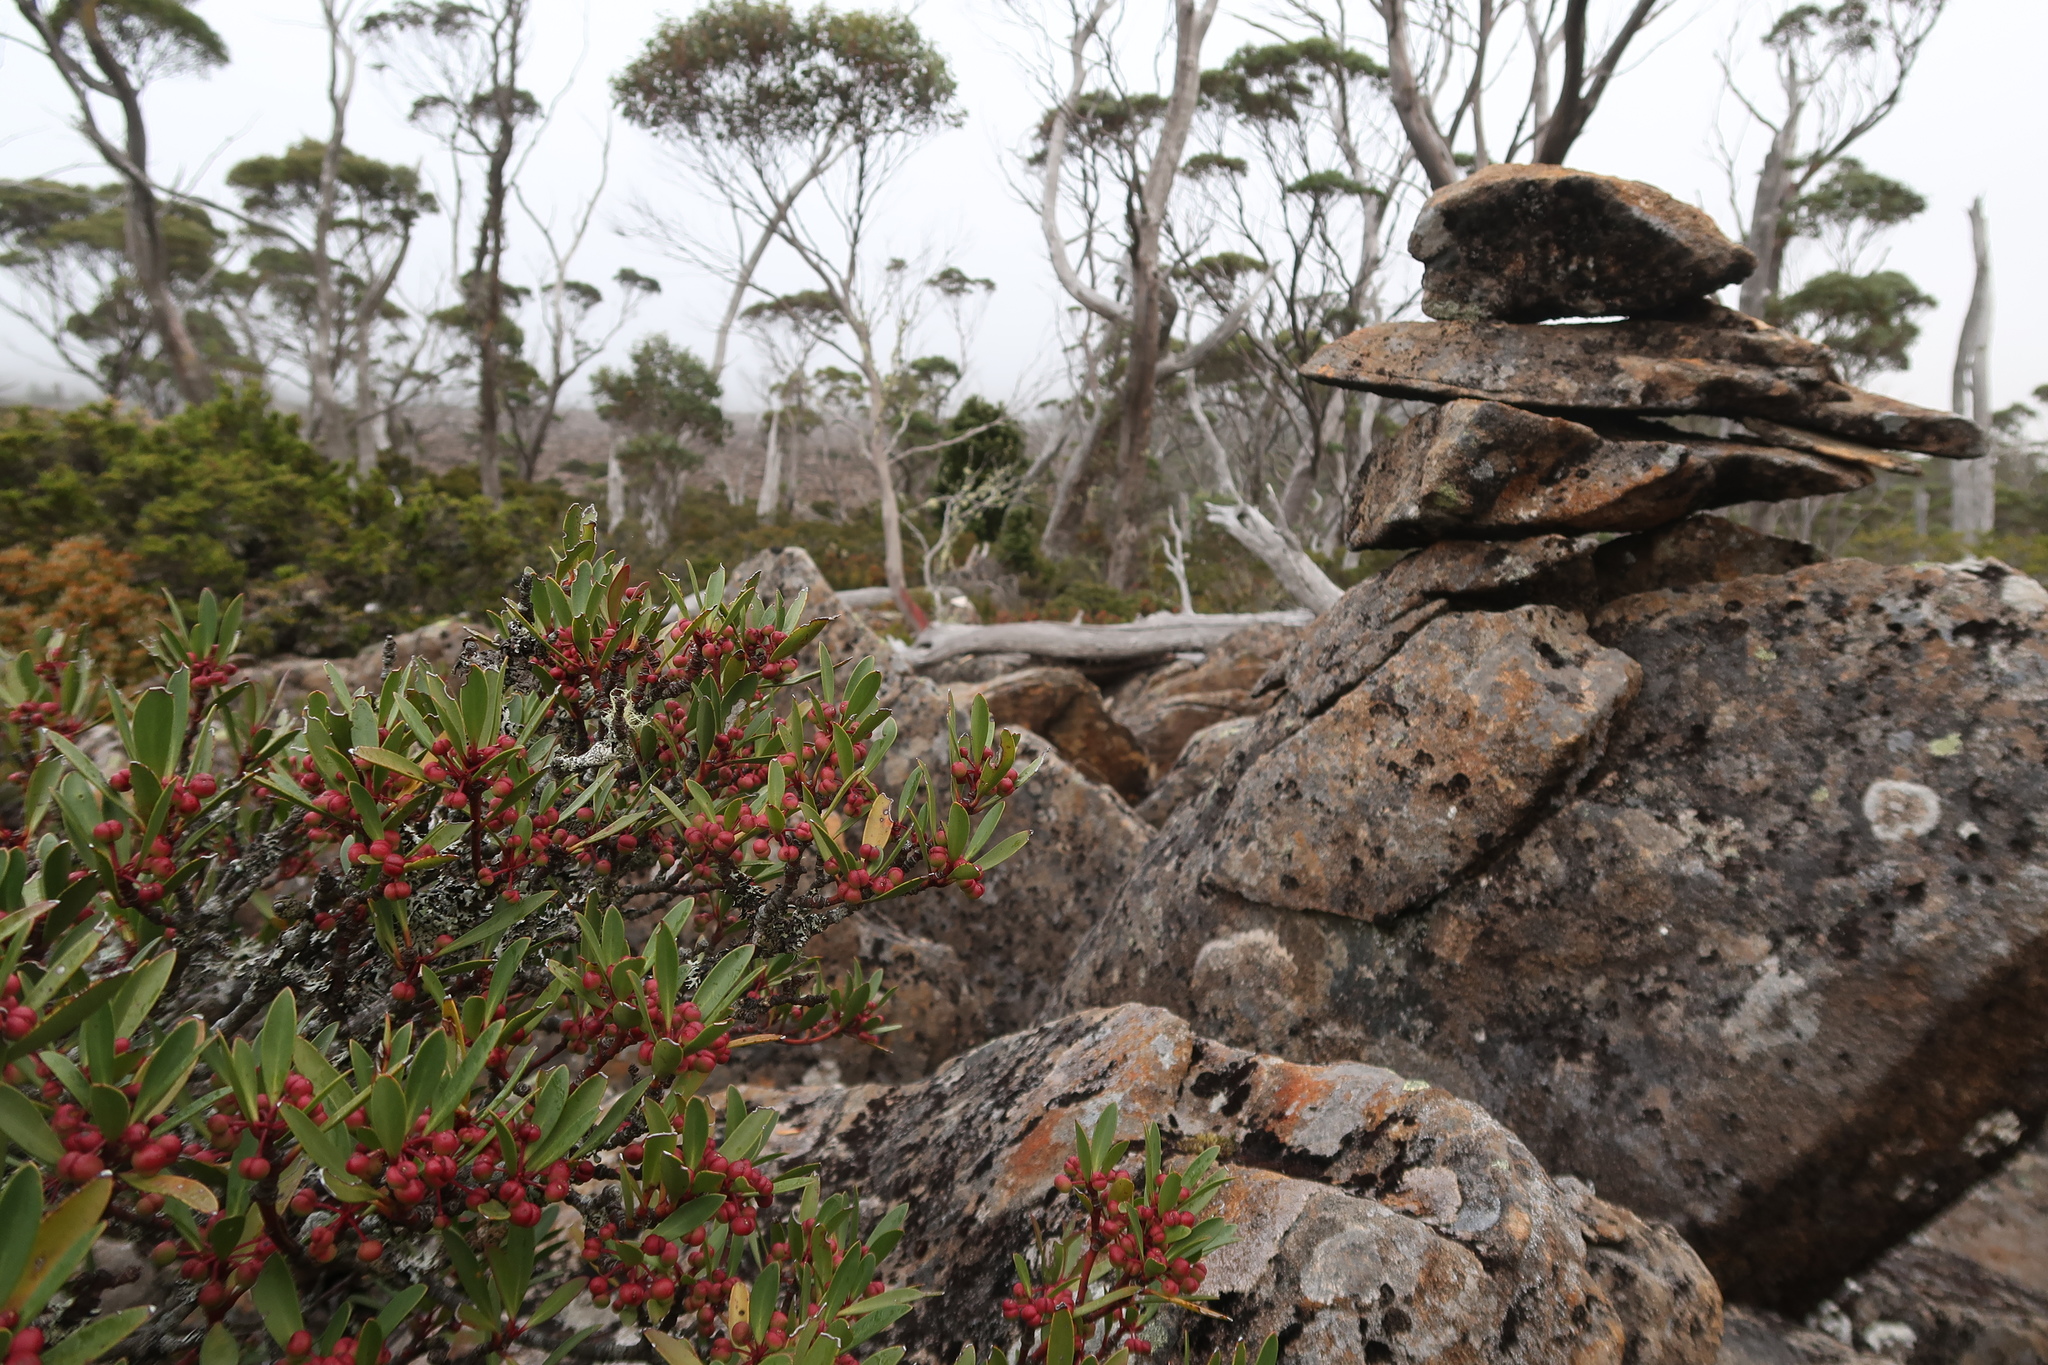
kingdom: Plantae
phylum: Tracheophyta
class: Magnoliopsida
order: Canellales
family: Winteraceae
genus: Drimys
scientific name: Drimys aromatica
